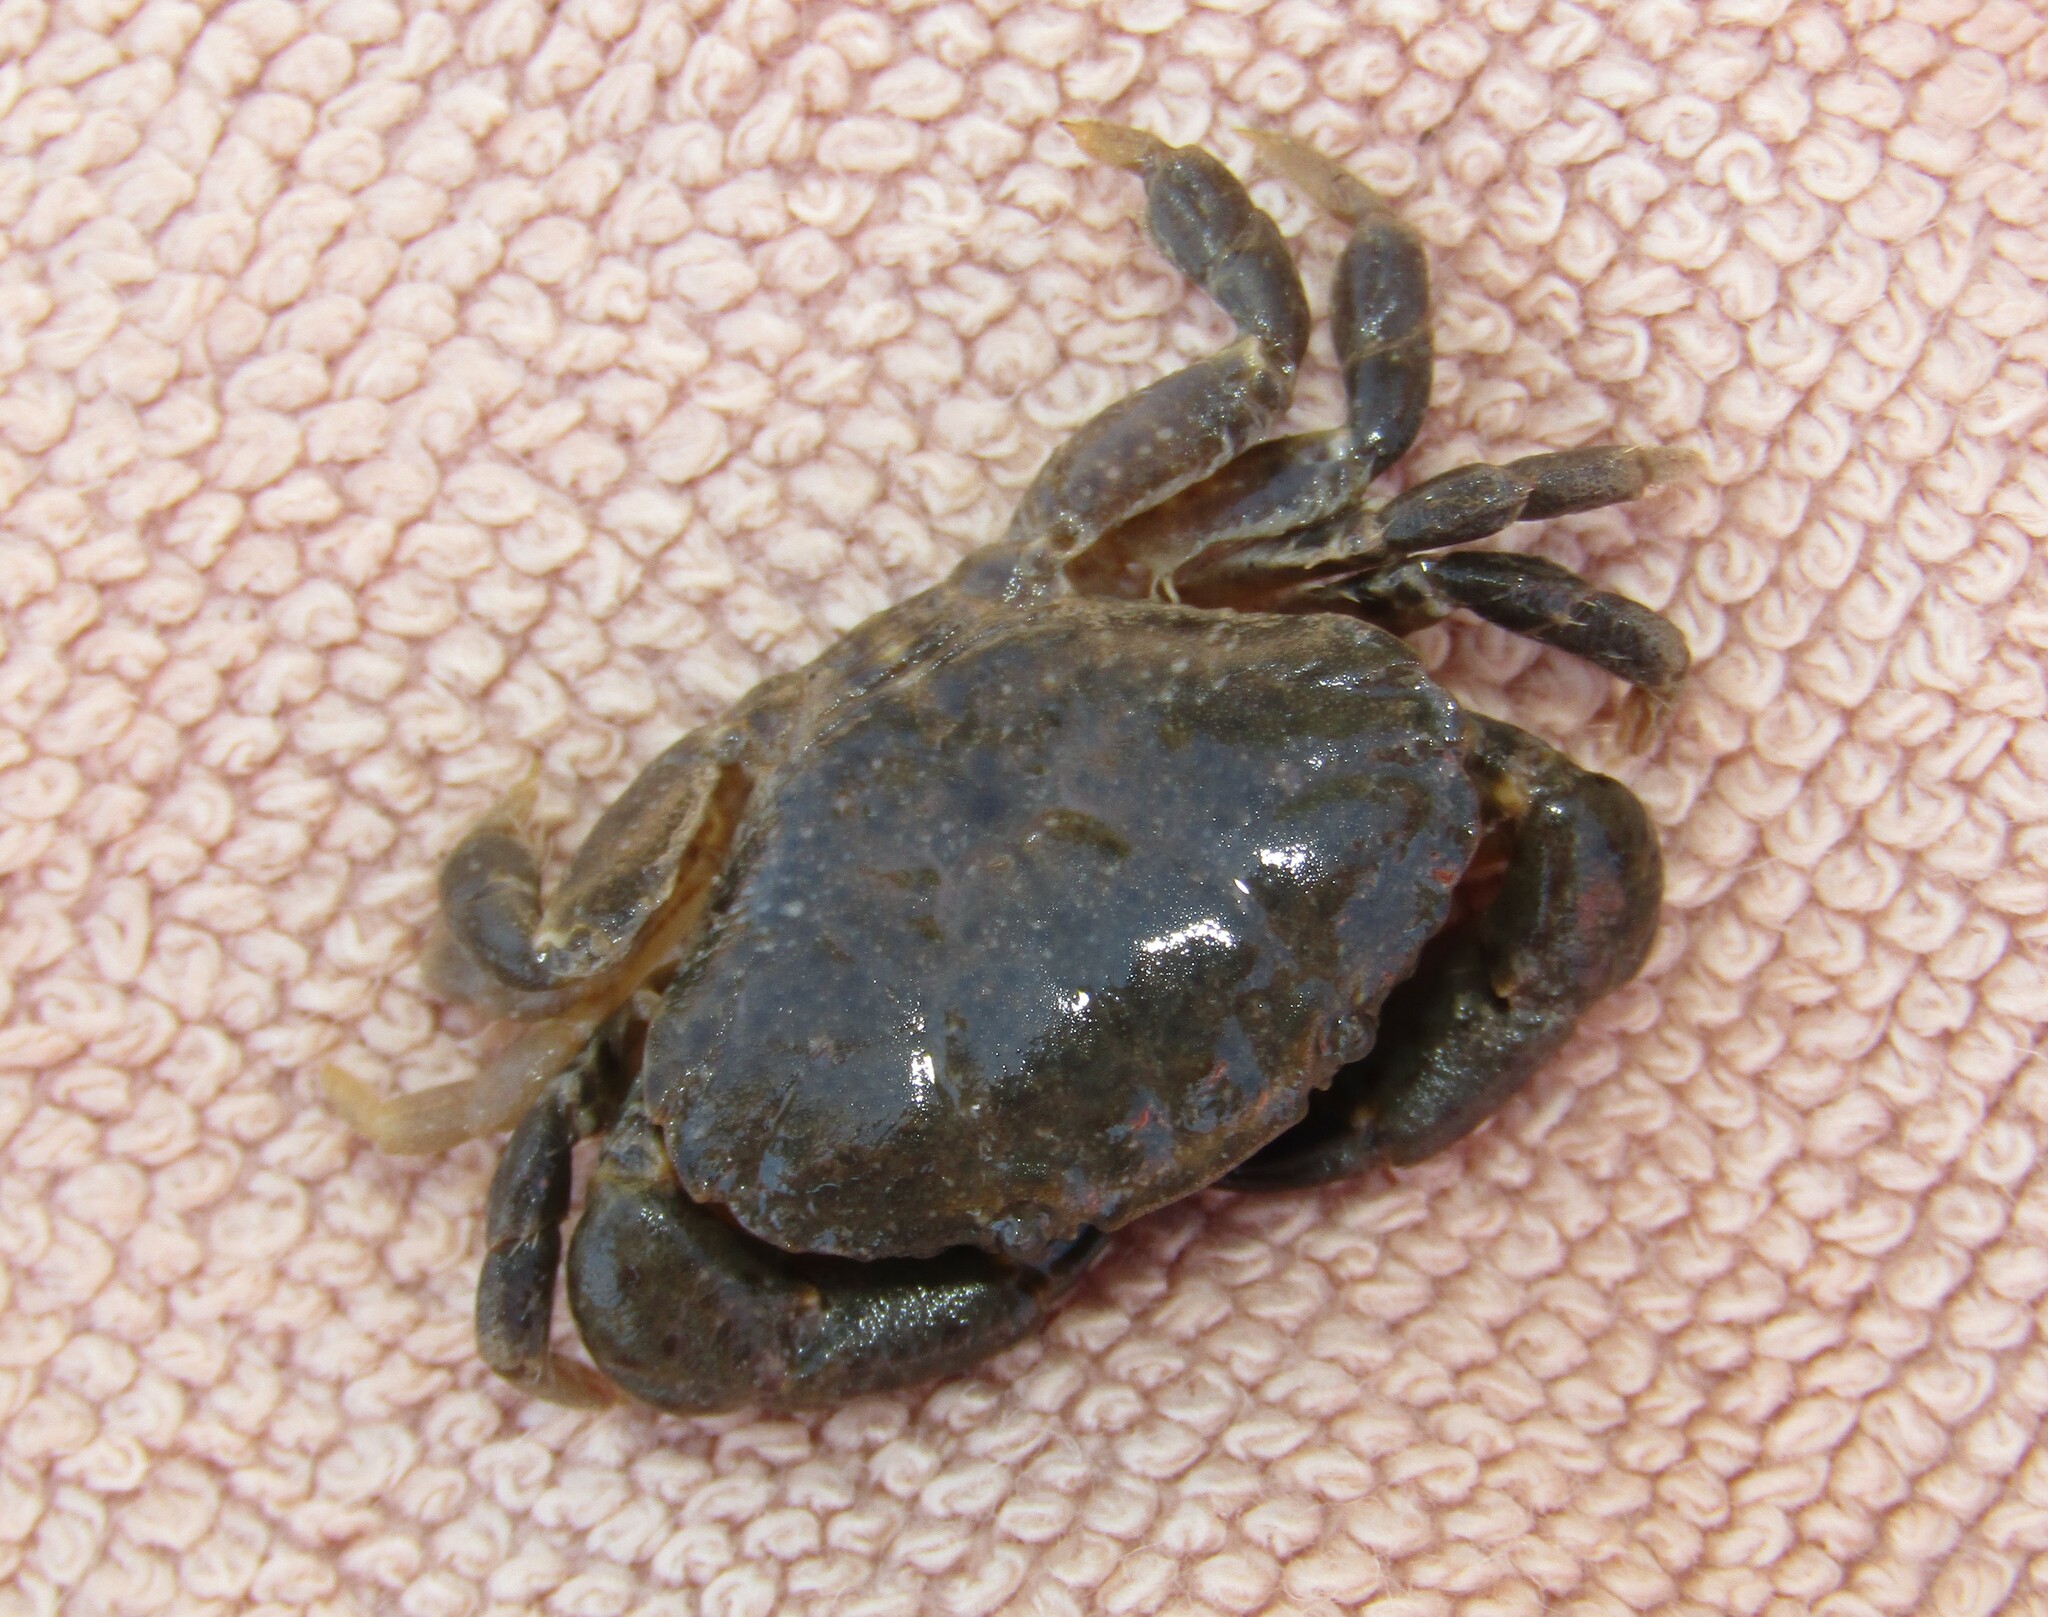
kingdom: Animalia
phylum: Arthropoda
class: Malacostraca
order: Decapoda
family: Xanthidae
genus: Xantho
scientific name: Xantho poressa
